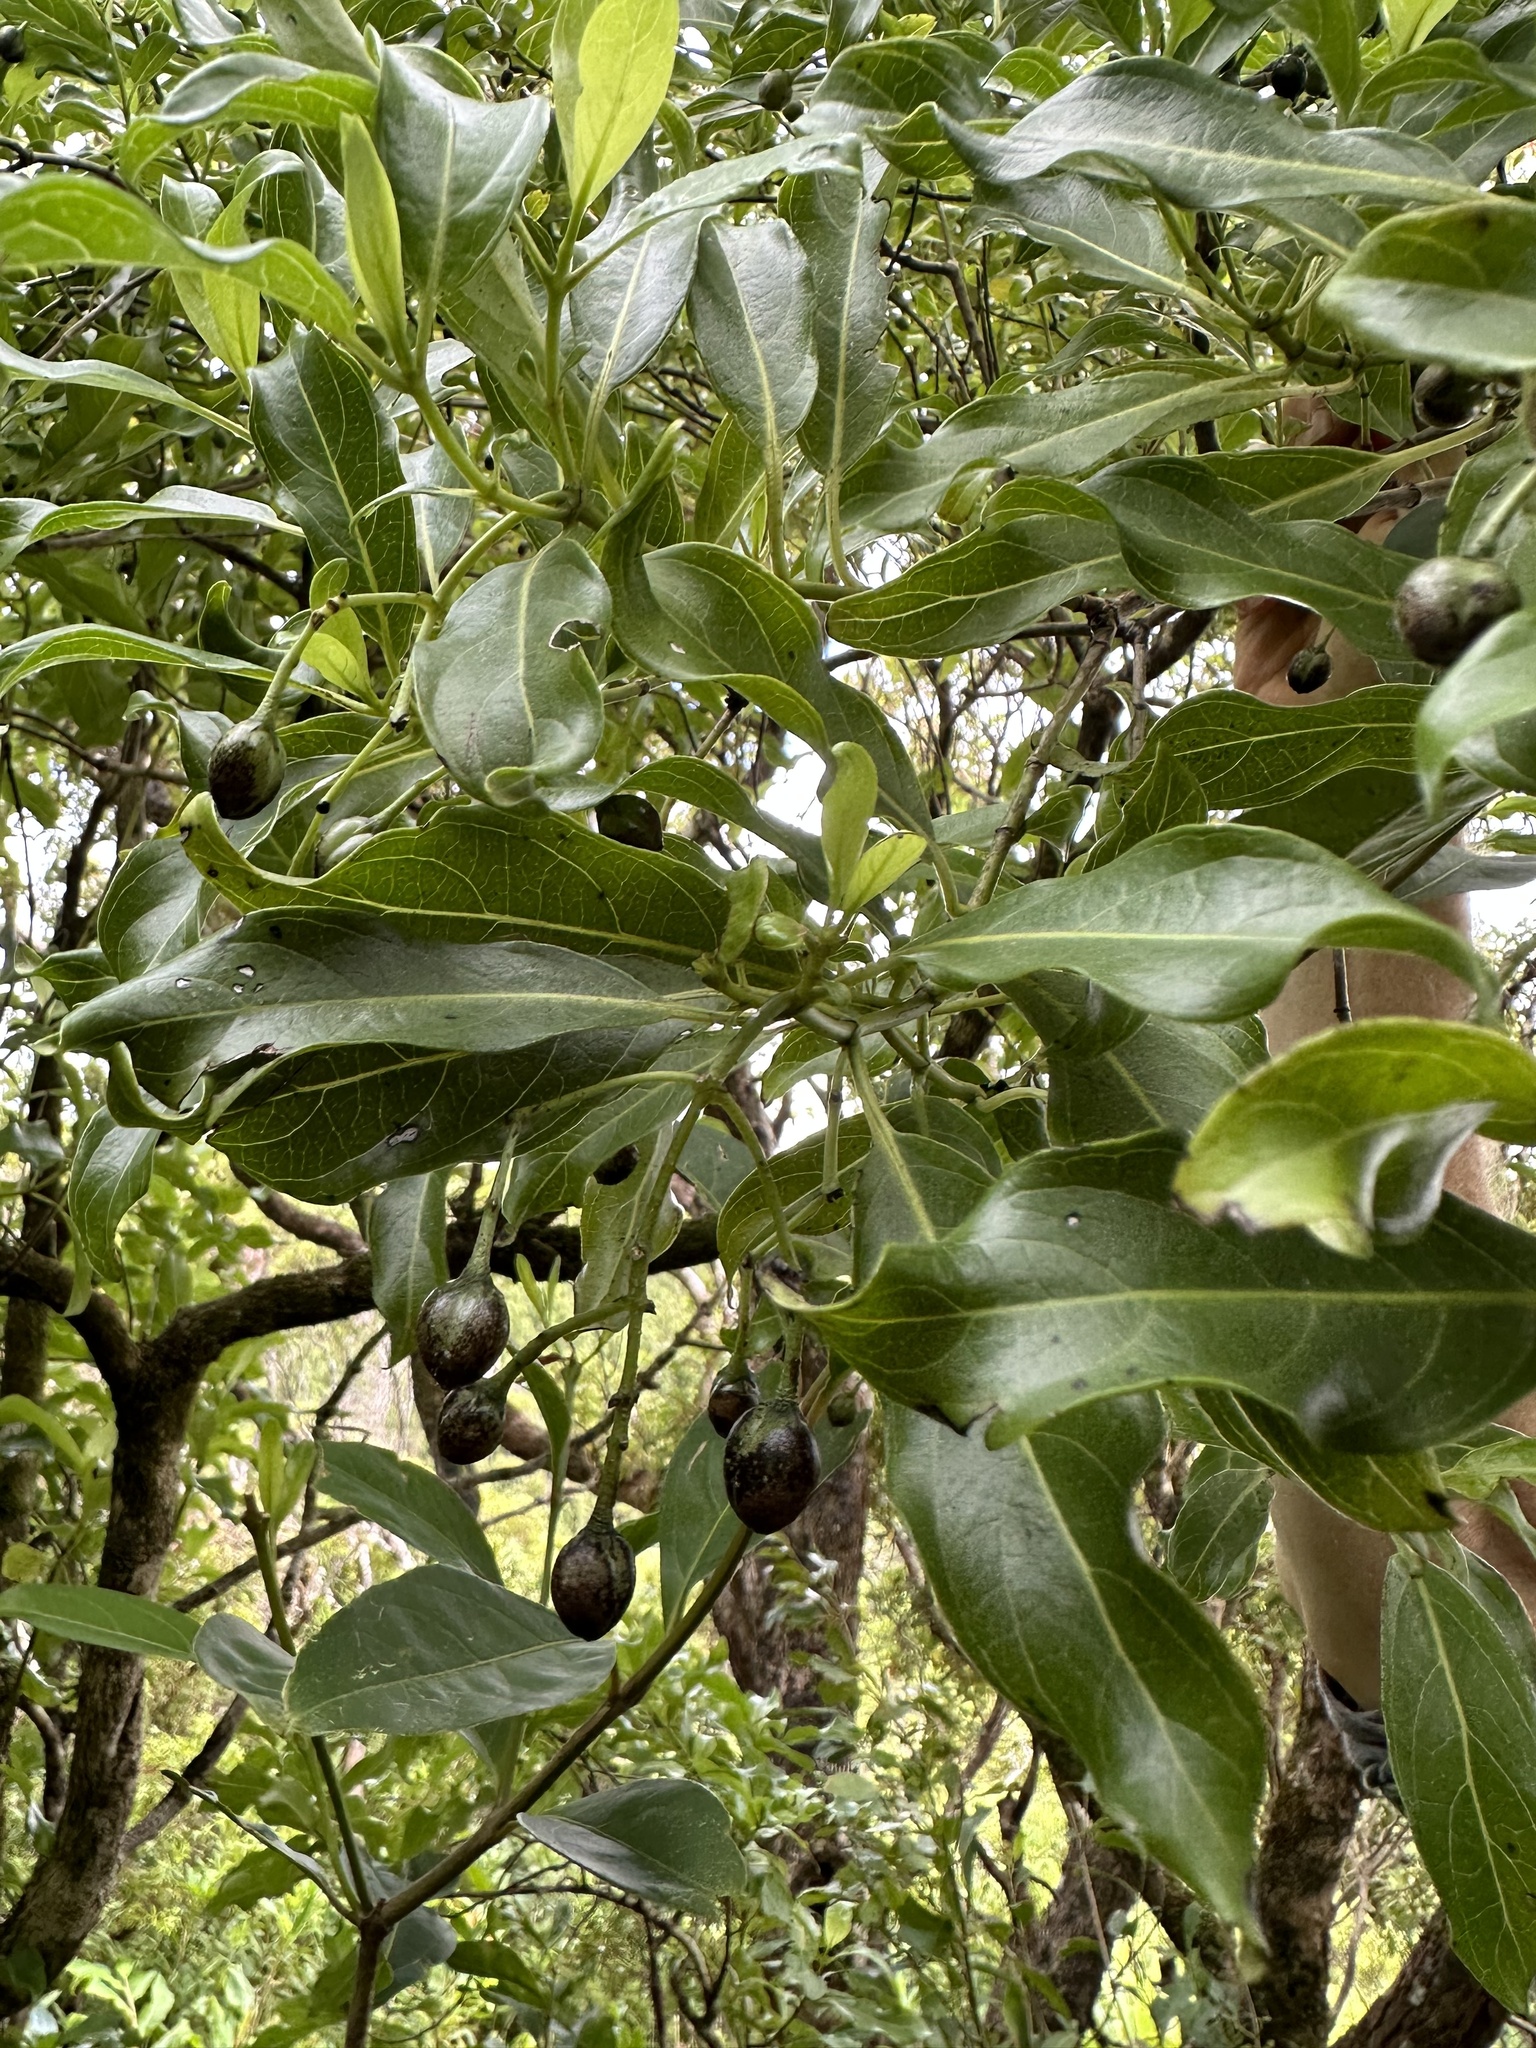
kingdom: Plantae
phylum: Tracheophyta
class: Magnoliopsida
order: Gentianales
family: Loganiaceae
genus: Geniostoma
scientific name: Geniostoma tinifolium
